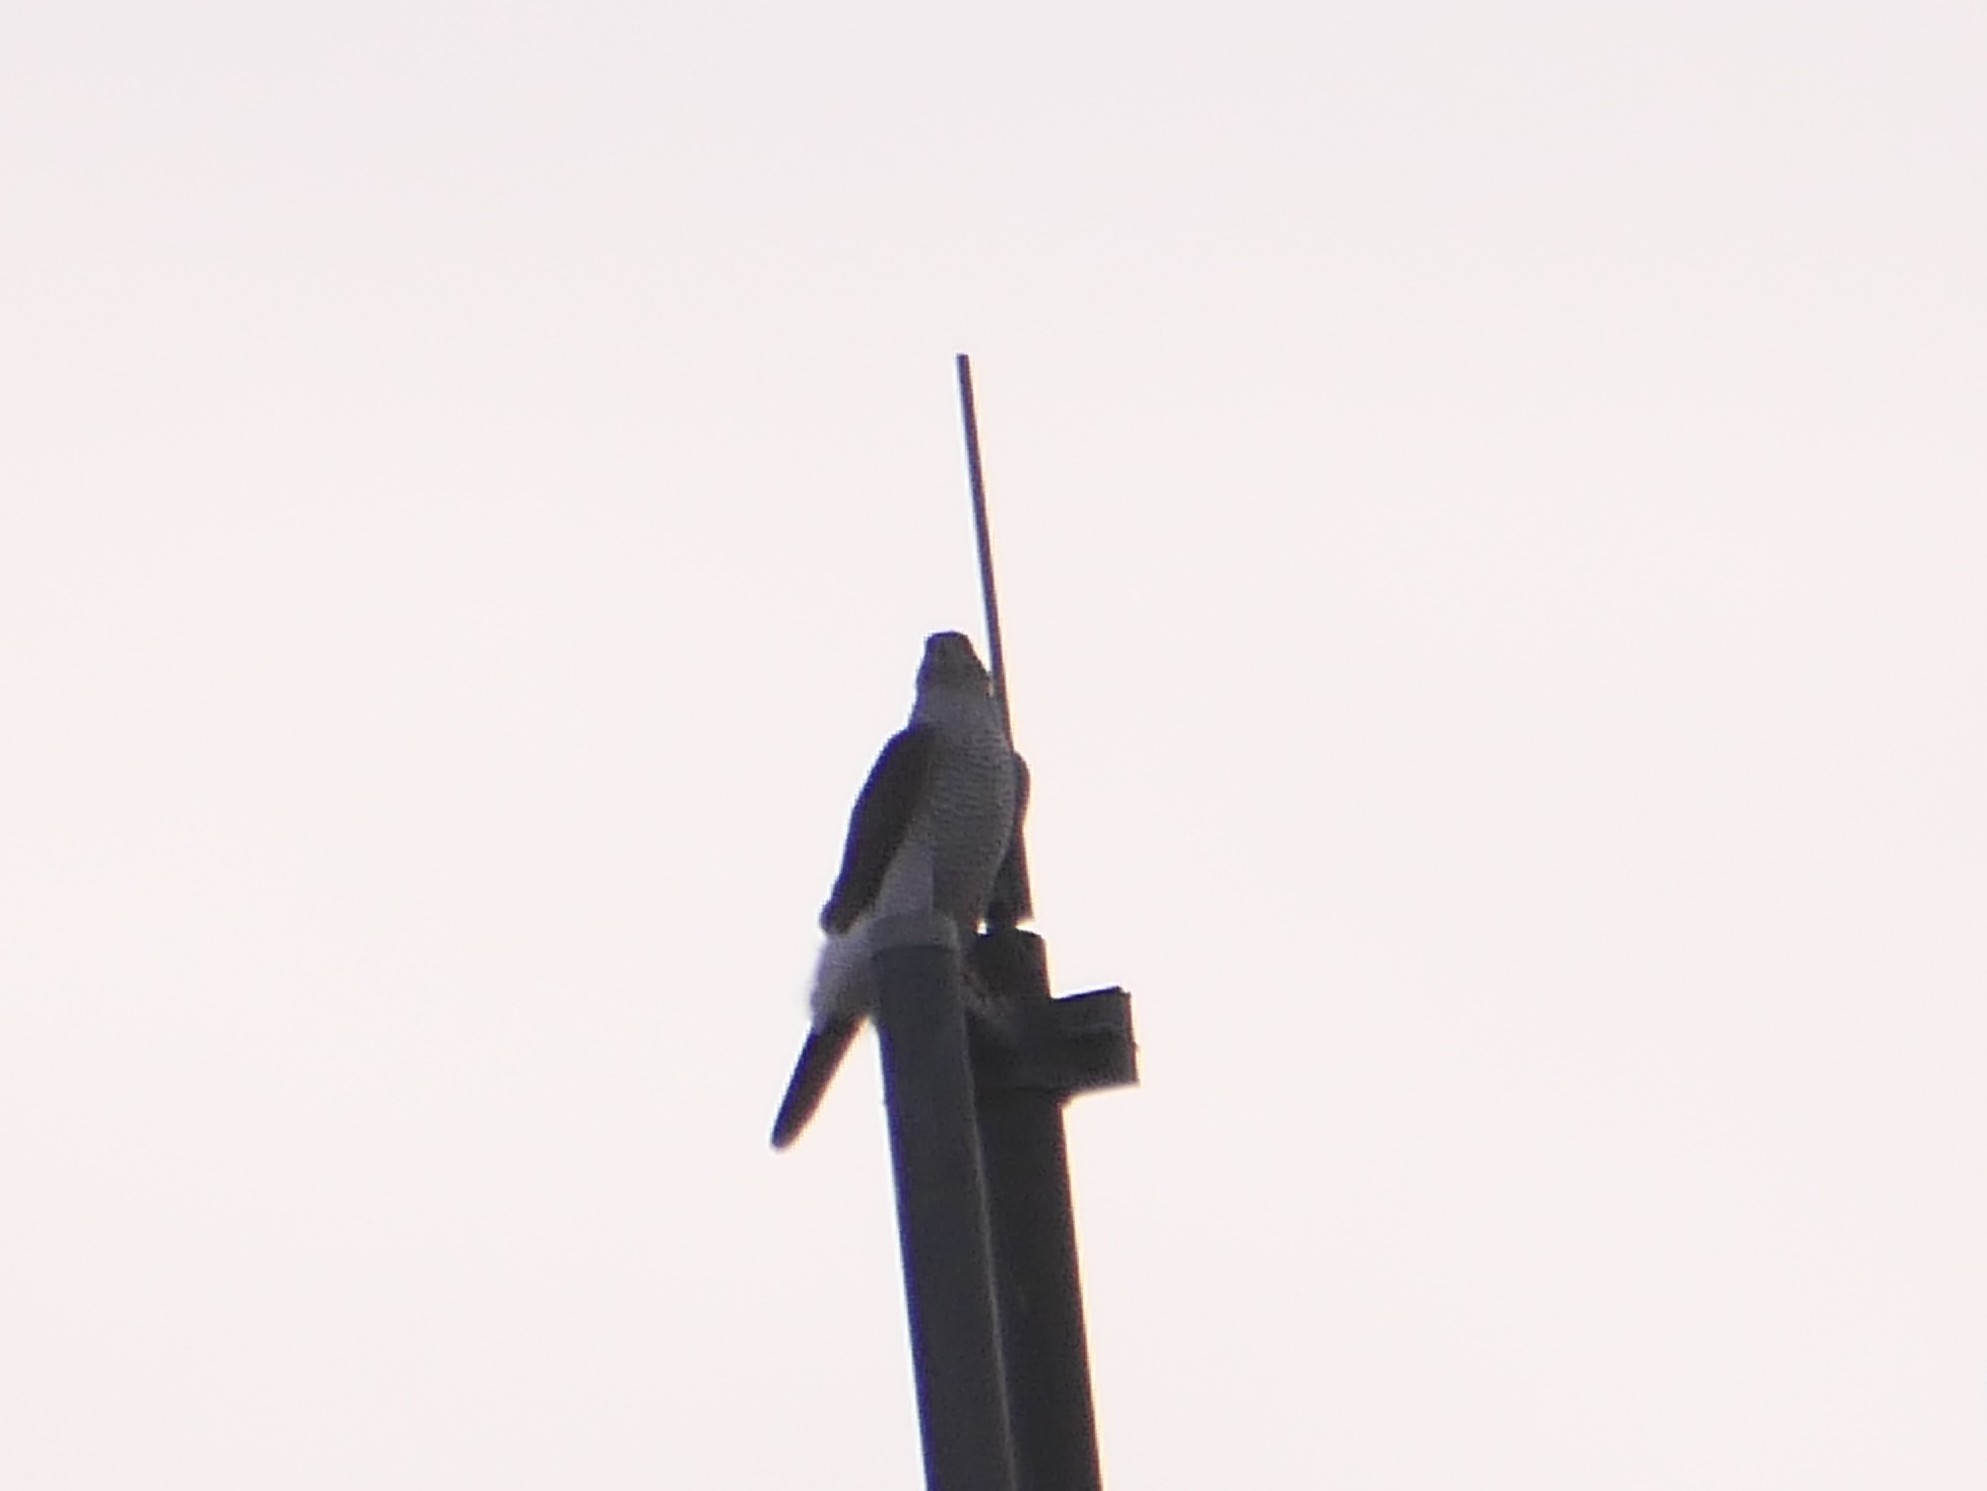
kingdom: Animalia
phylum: Chordata
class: Aves
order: Accipitriformes
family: Accipitridae
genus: Accipiter
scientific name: Accipiter gentilis
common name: Northern goshawk
